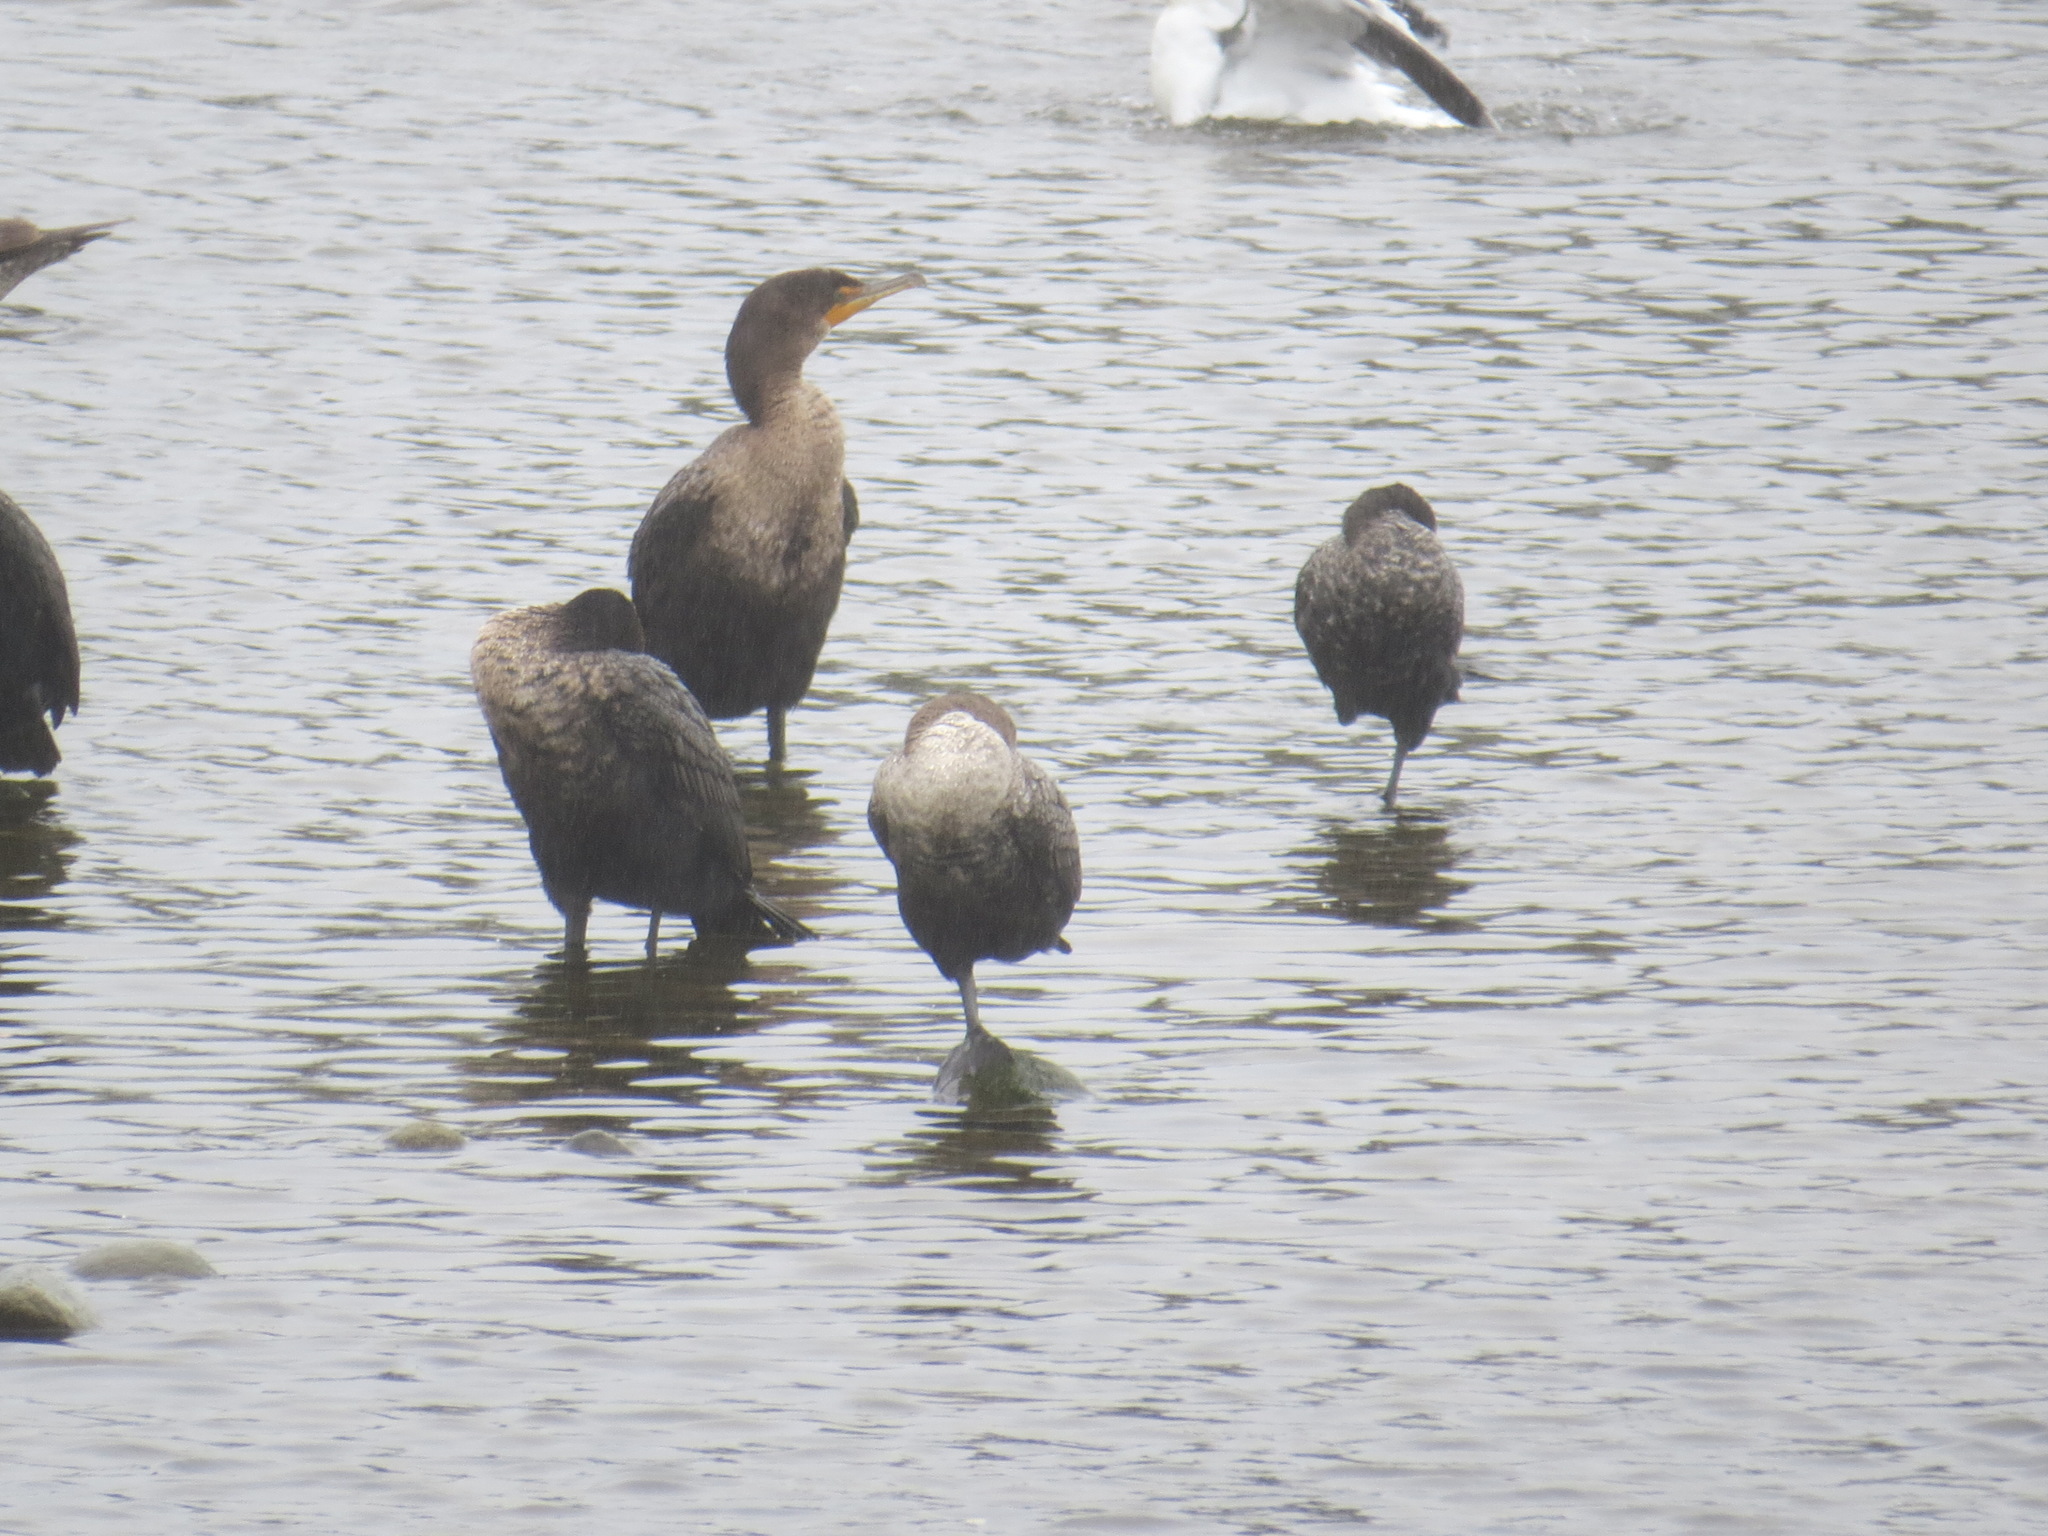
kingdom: Animalia
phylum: Chordata
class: Aves
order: Suliformes
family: Phalacrocoracidae
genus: Phalacrocorax
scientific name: Phalacrocorax auritus
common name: Double-crested cormorant
